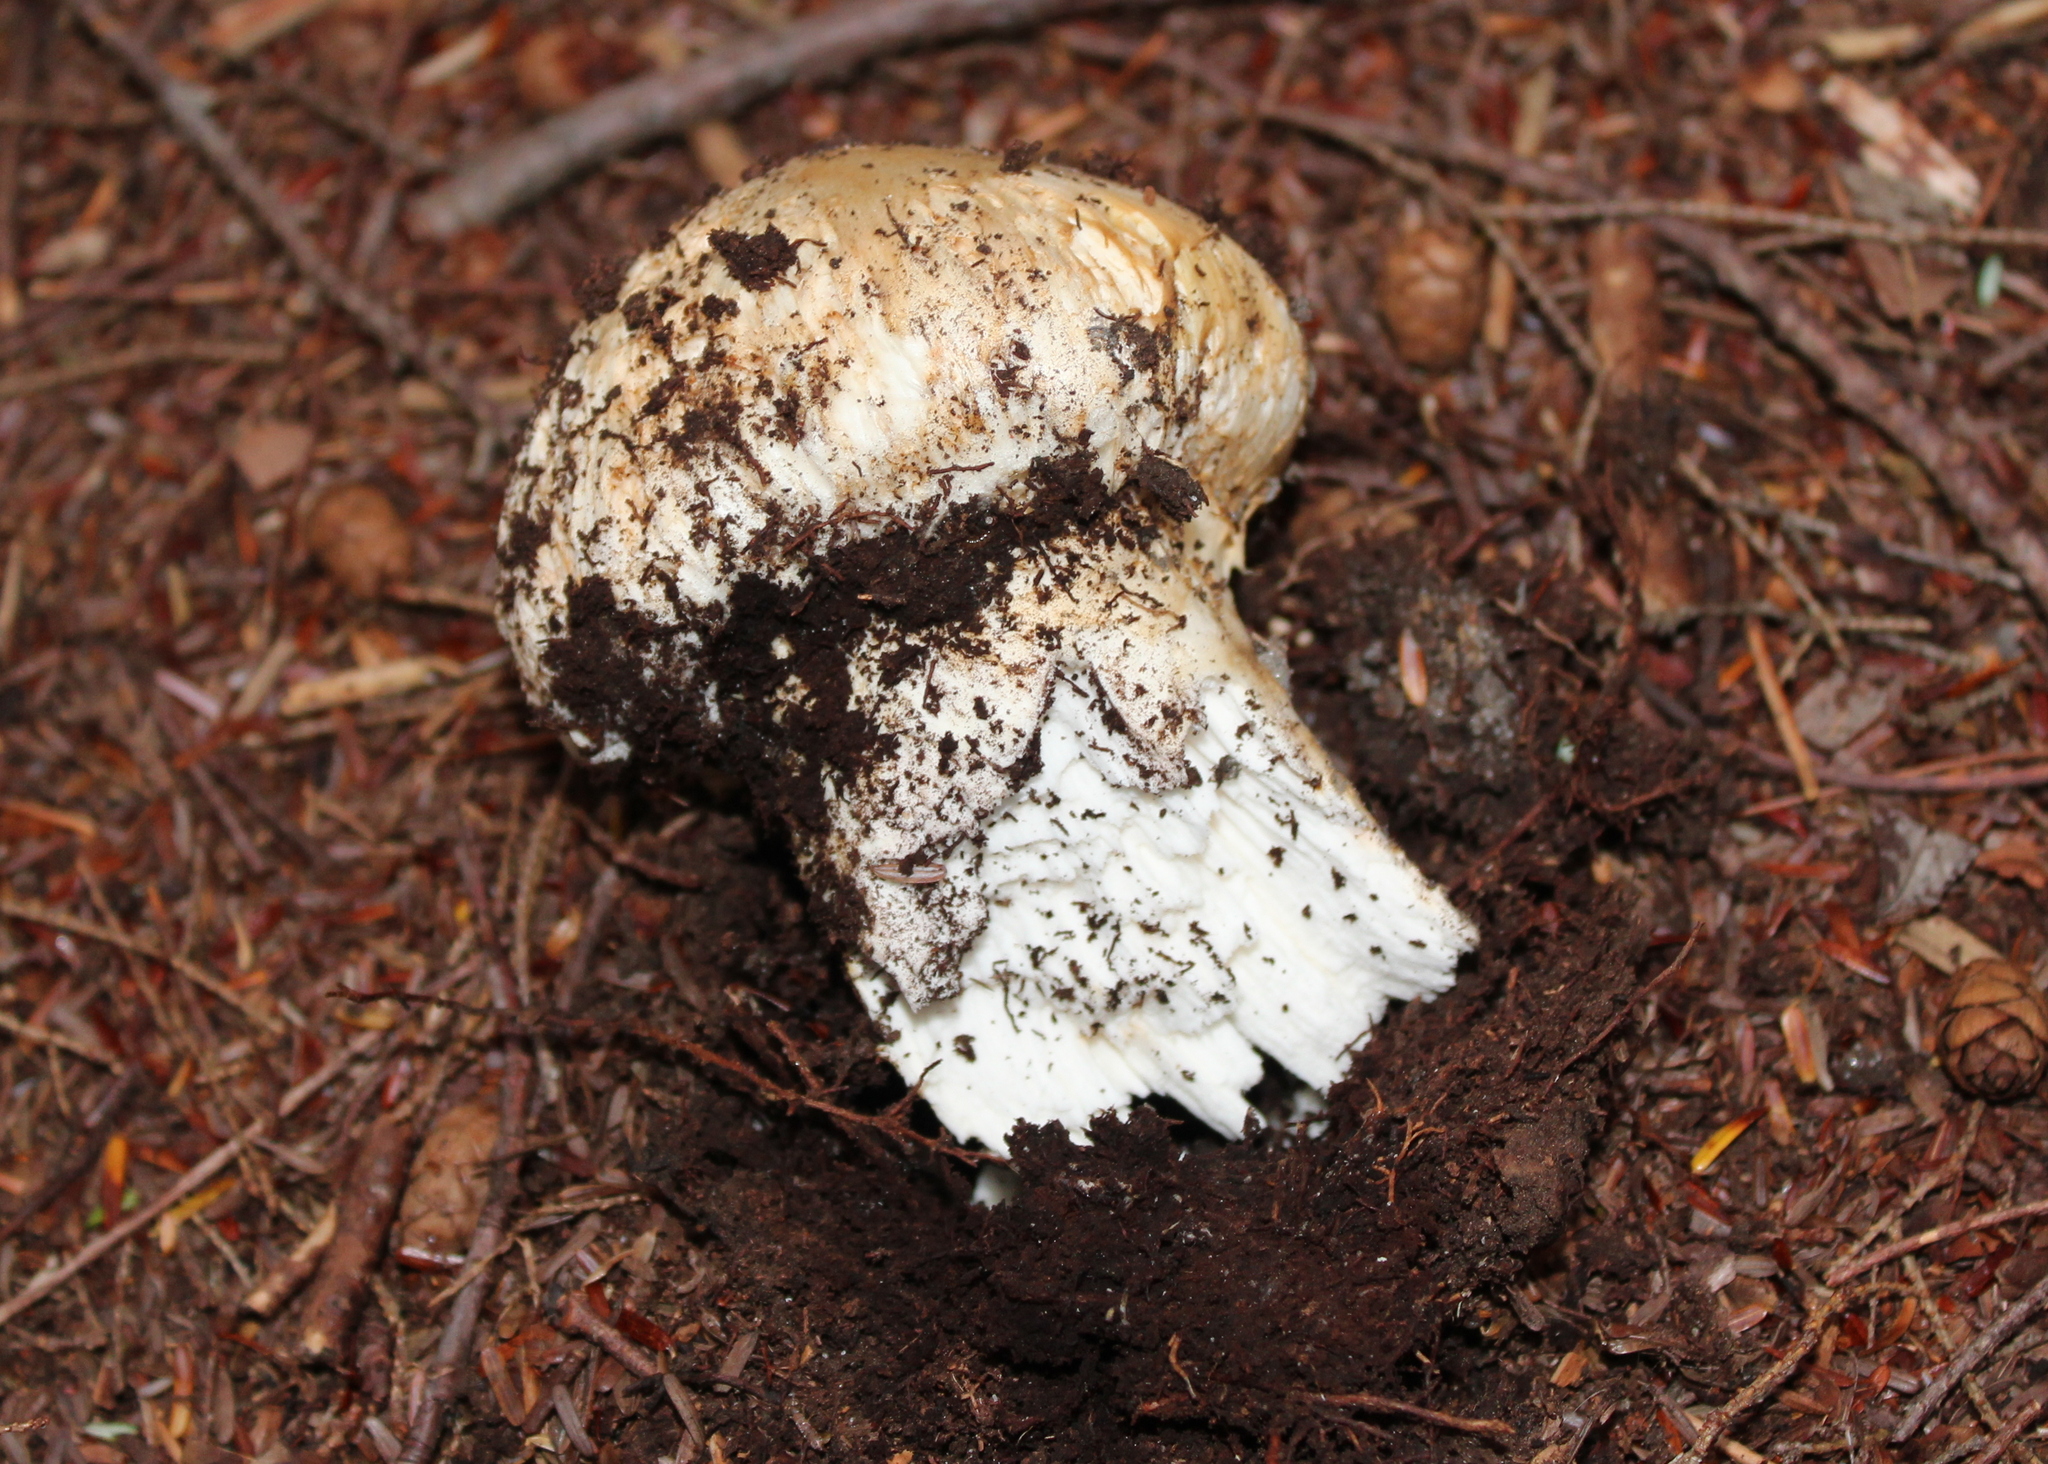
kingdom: Fungi
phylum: Basidiomycota
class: Agaricomycetes
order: Agaricales
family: Tricholomataceae
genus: Tricholoma
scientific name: Tricholoma magnivelare
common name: American matsutake
